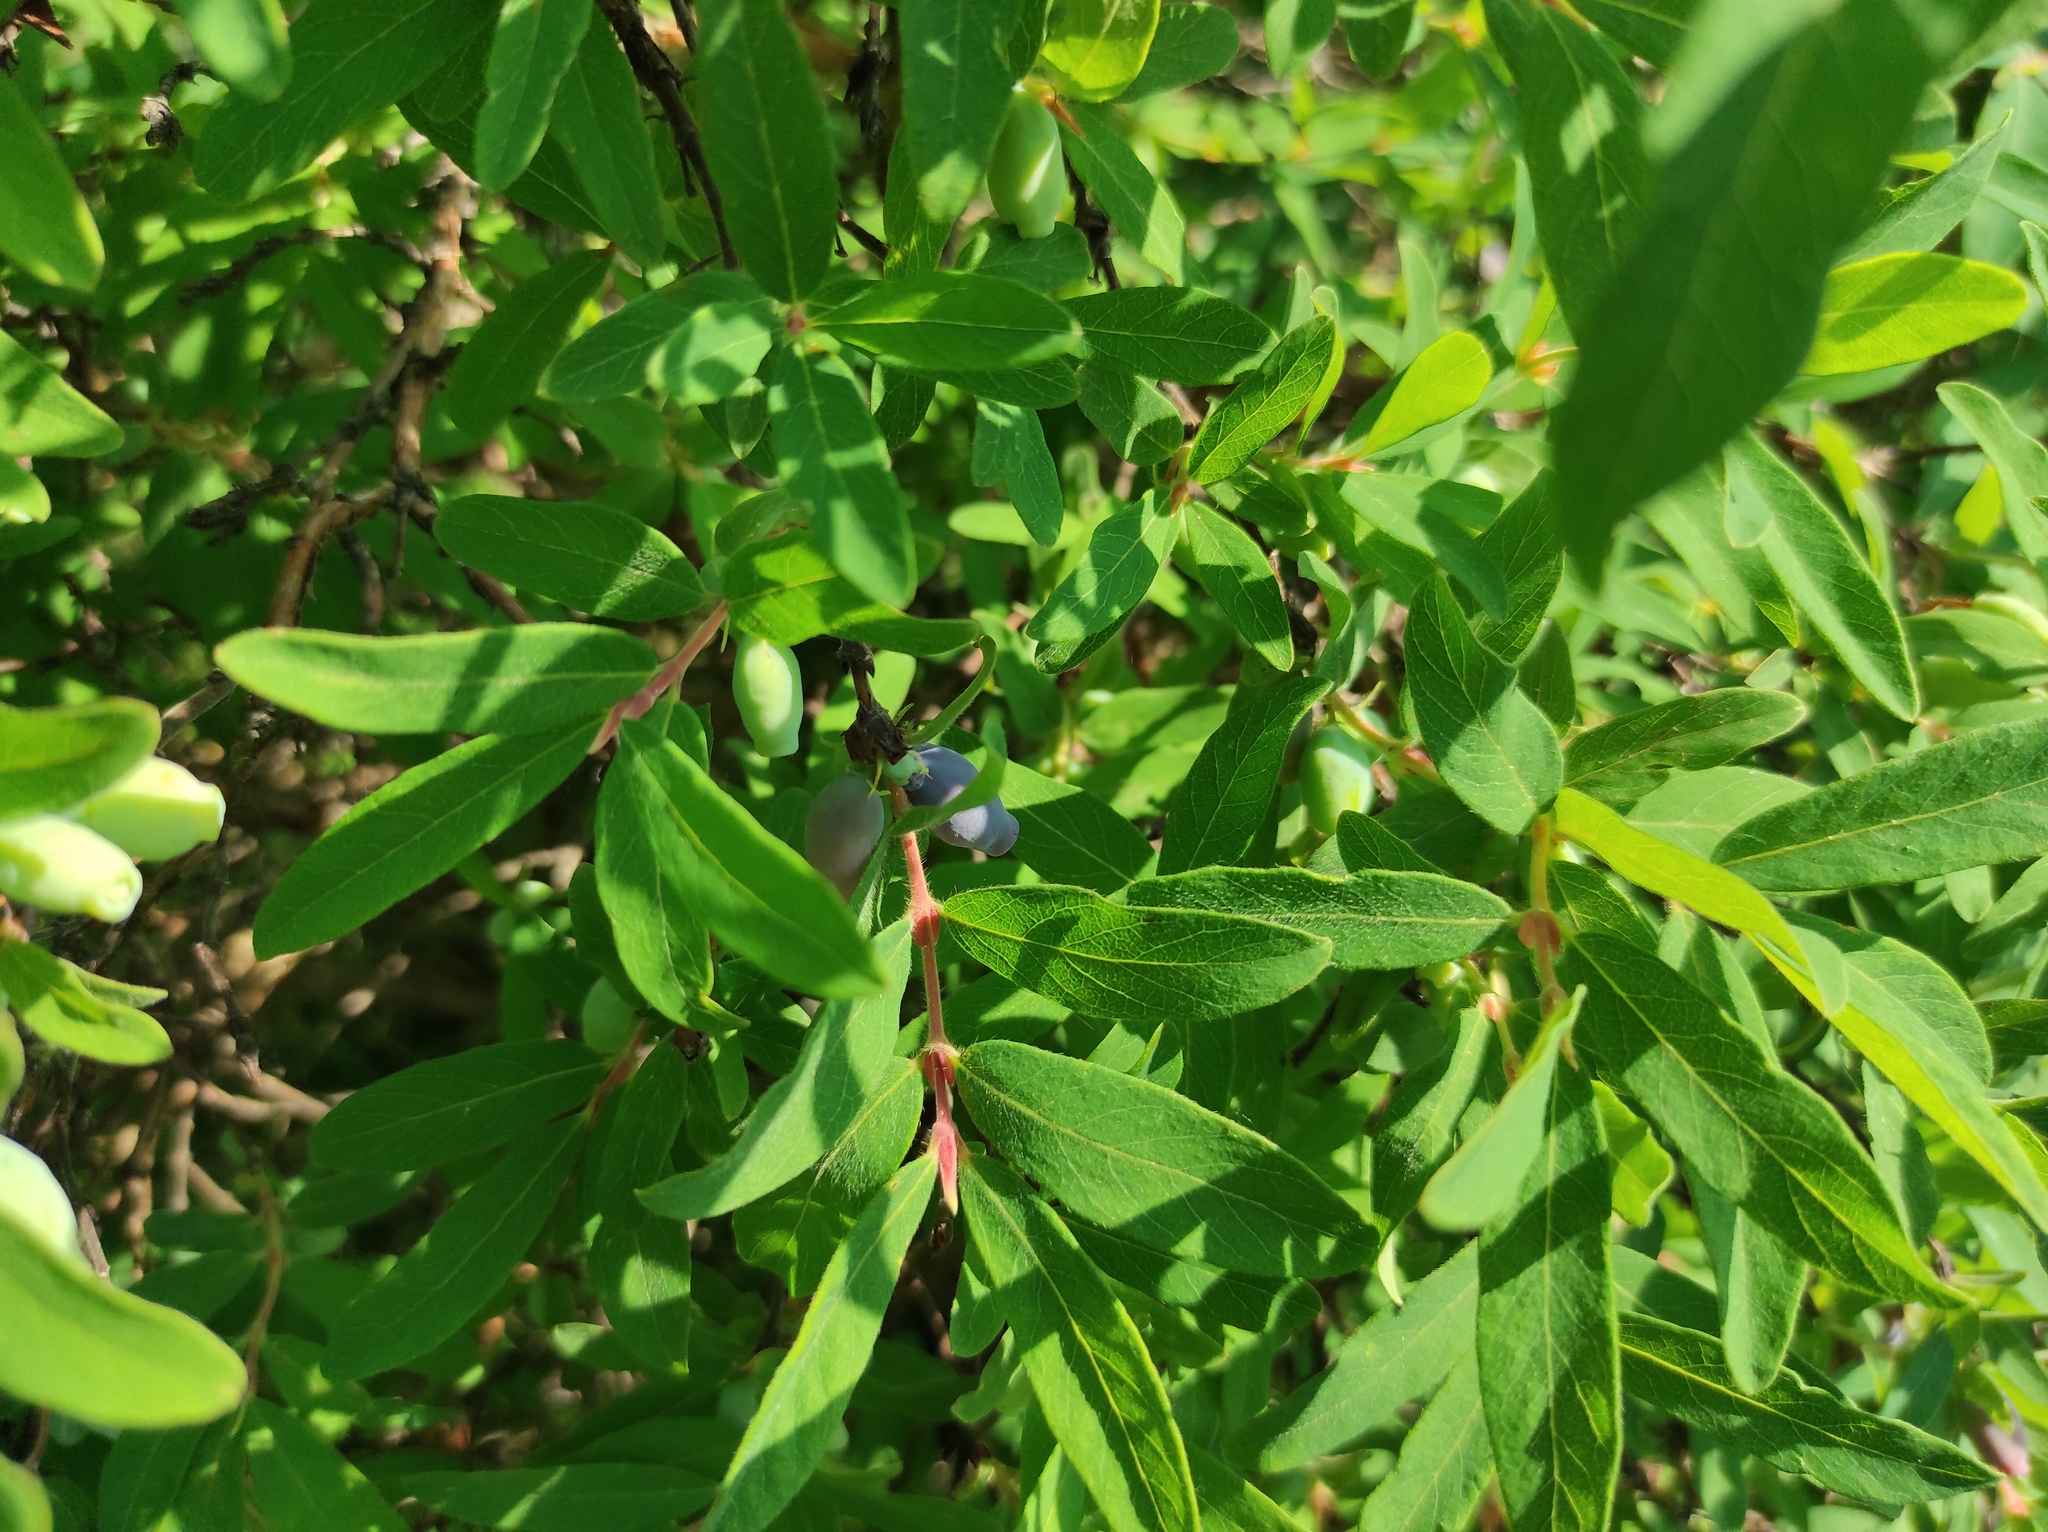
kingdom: Plantae
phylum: Tracheophyta
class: Magnoliopsida
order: Dipsacales
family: Caprifoliaceae
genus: Lonicera
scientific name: Lonicera caerulea
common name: Blue honeysuckle
